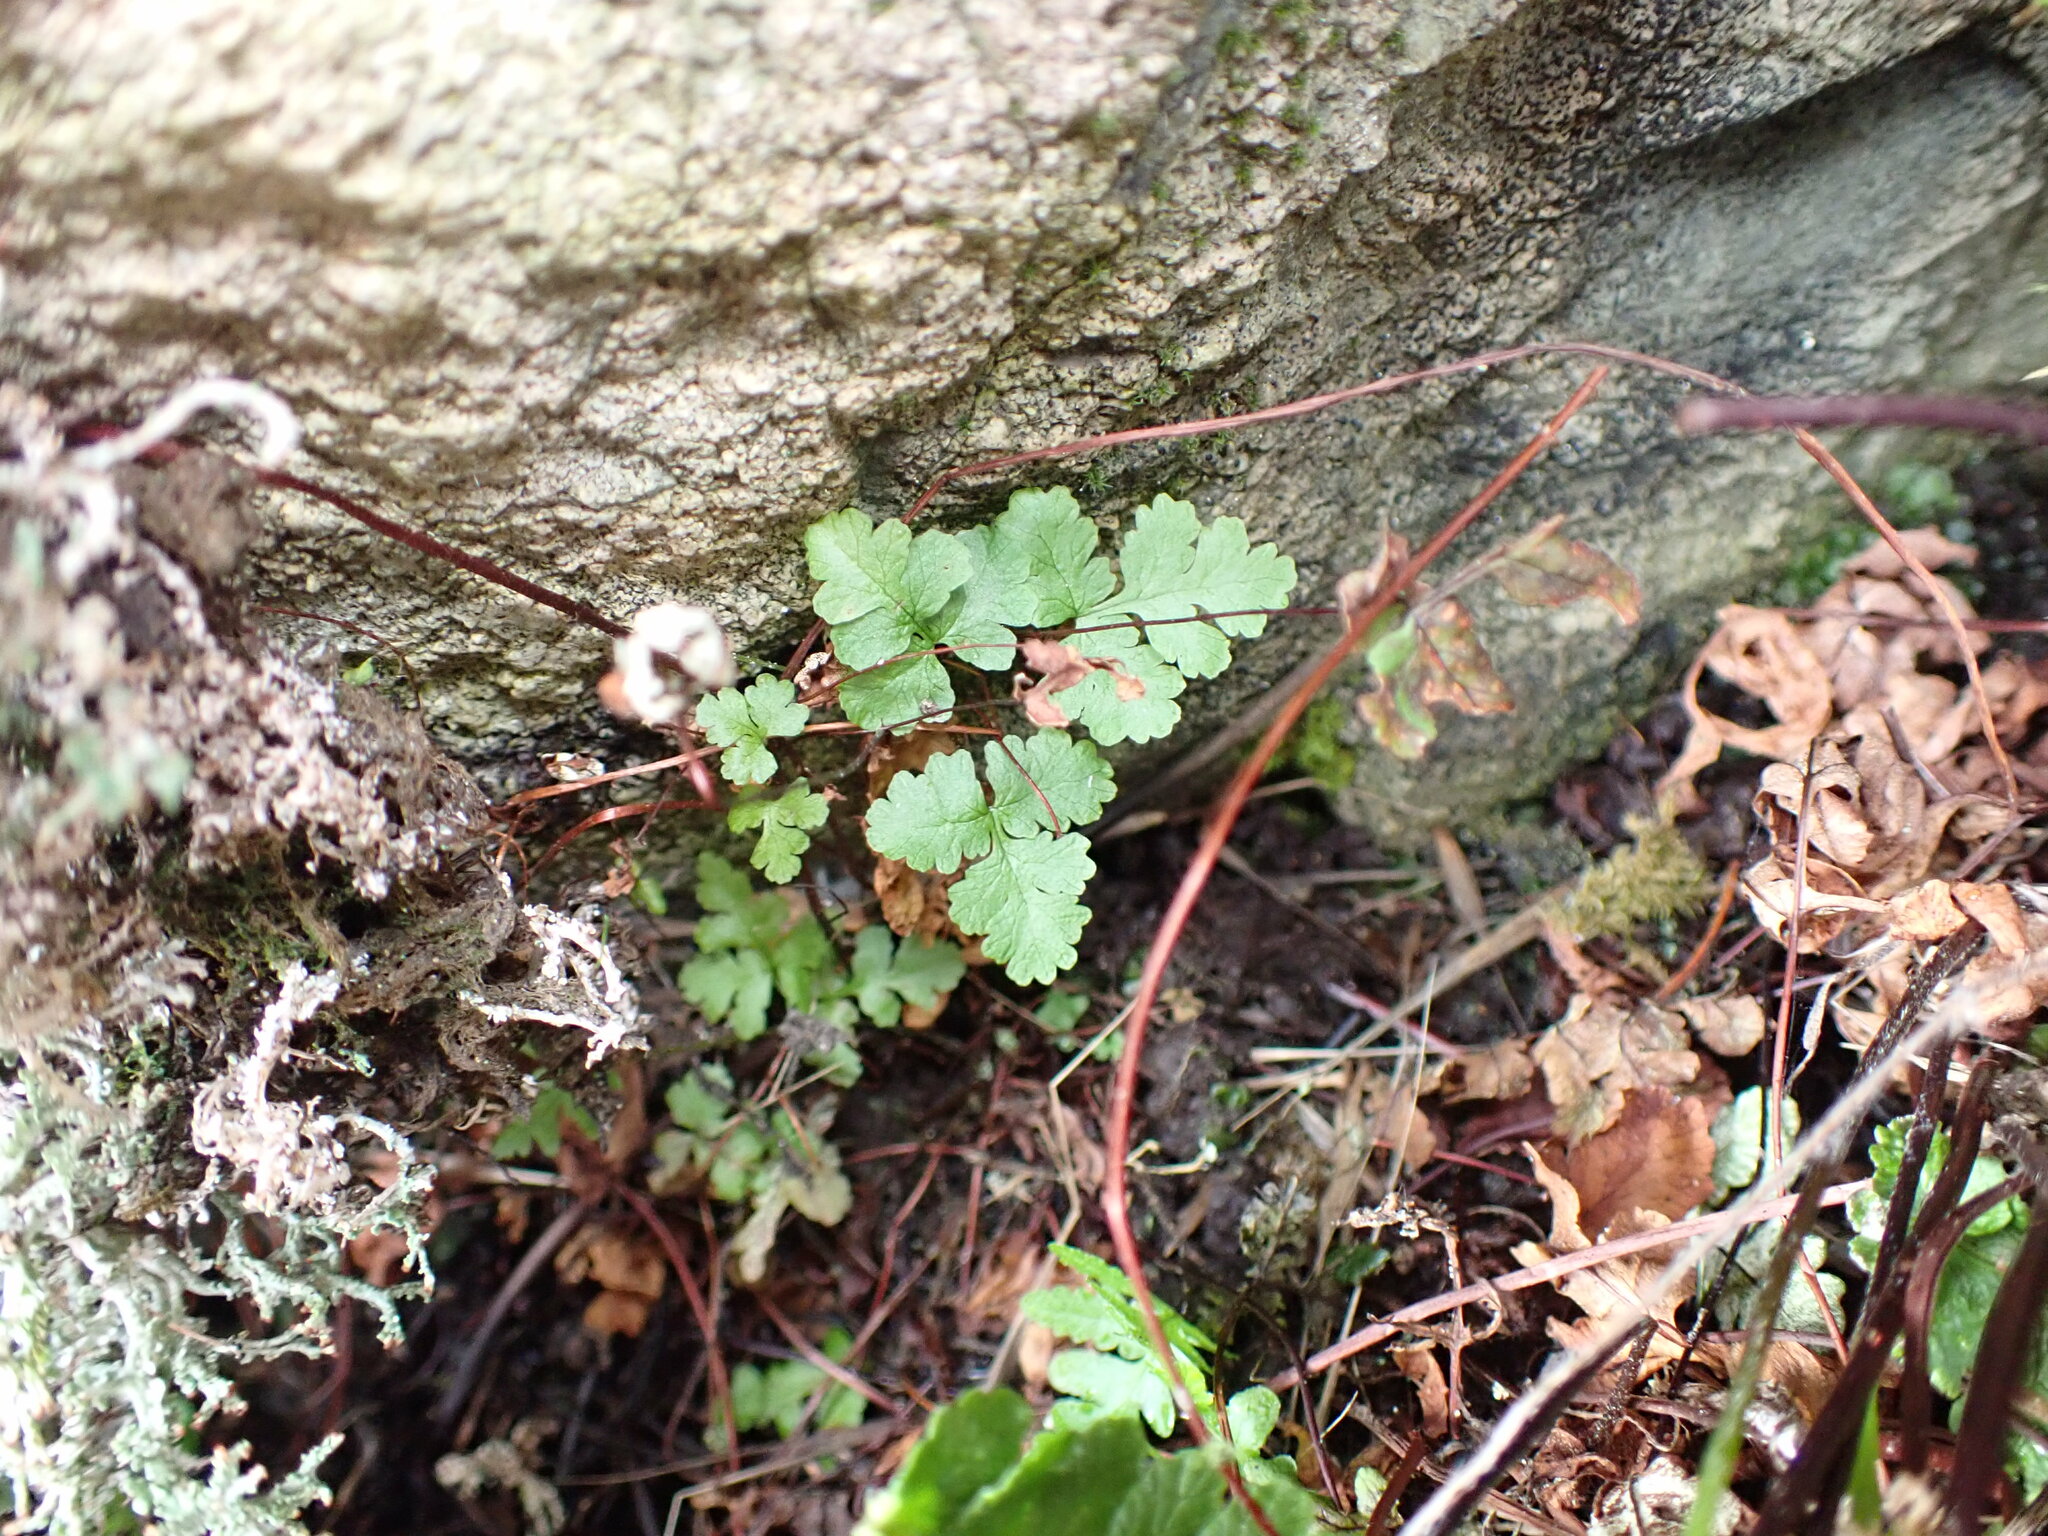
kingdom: Plantae
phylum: Tracheophyta
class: Polypodiopsida
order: Polypodiales
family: Pteridaceae
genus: Pentagramma
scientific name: Pentagramma triangularis
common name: Gold fern
